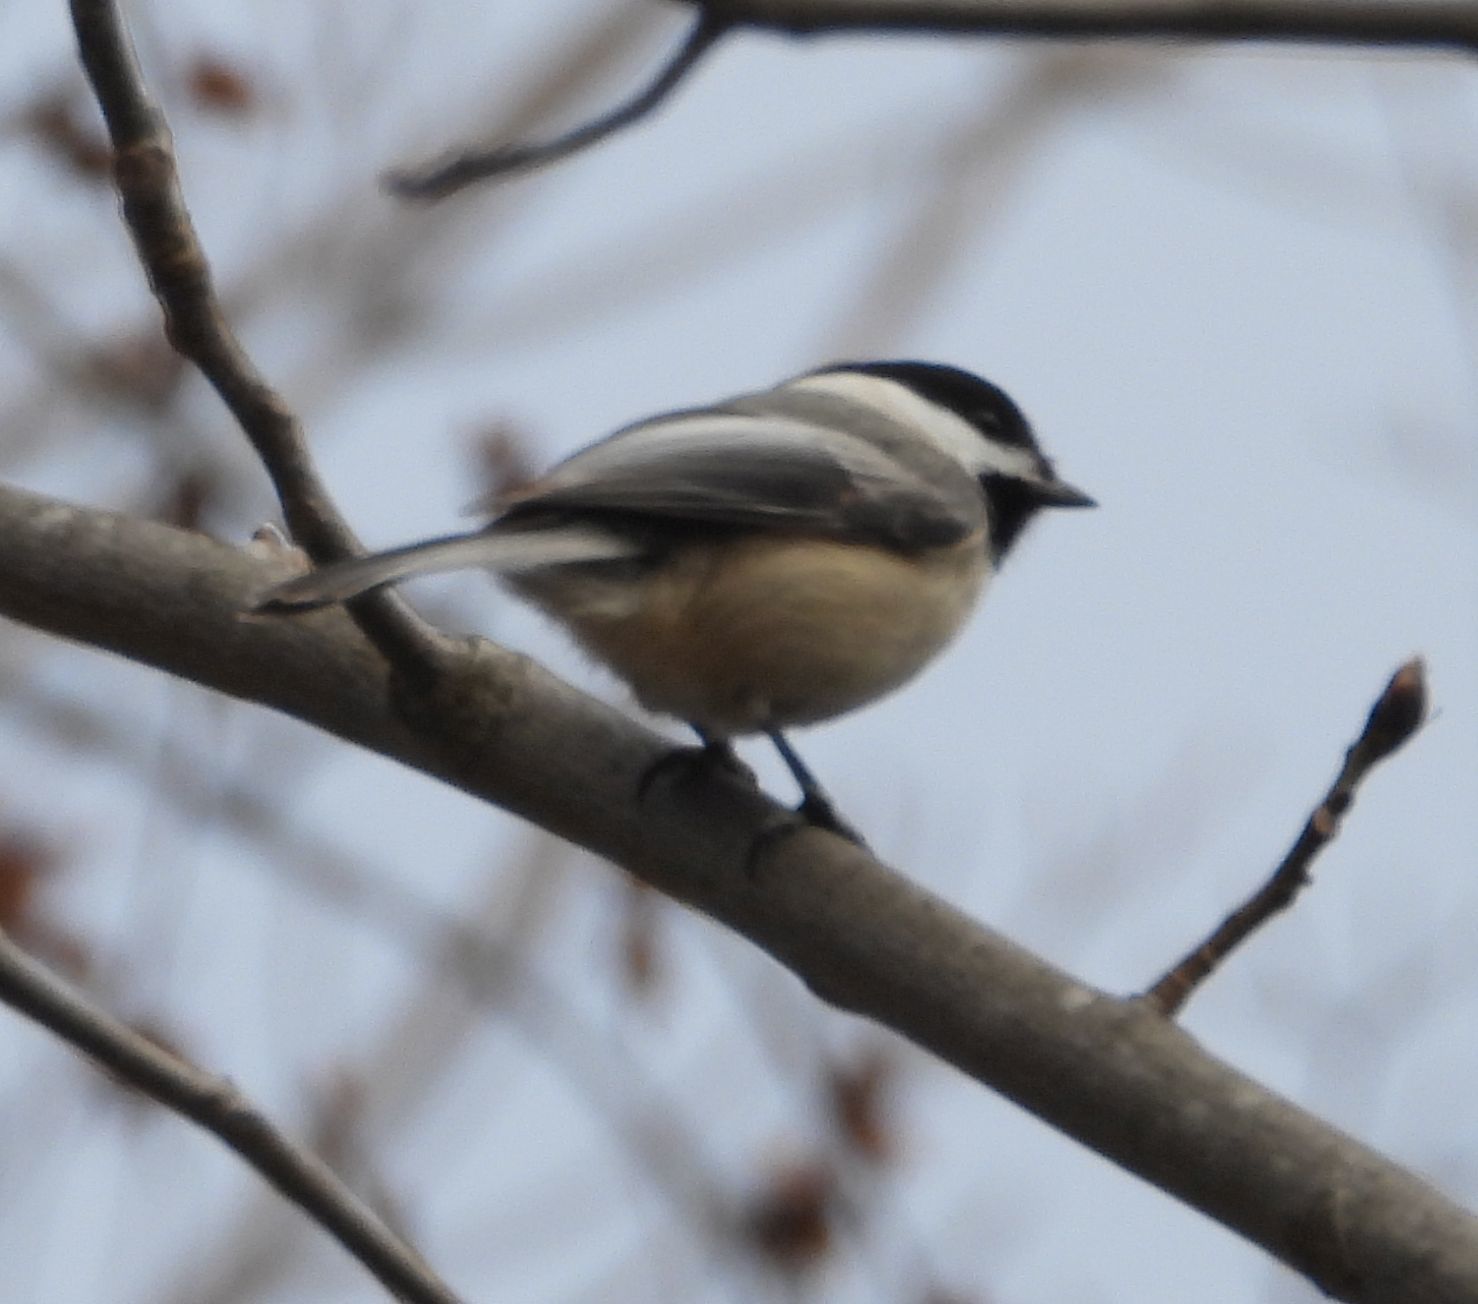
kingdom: Animalia
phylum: Chordata
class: Aves
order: Passeriformes
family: Paridae
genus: Poecile
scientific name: Poecile atricapillus
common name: Black-capped chickadee
